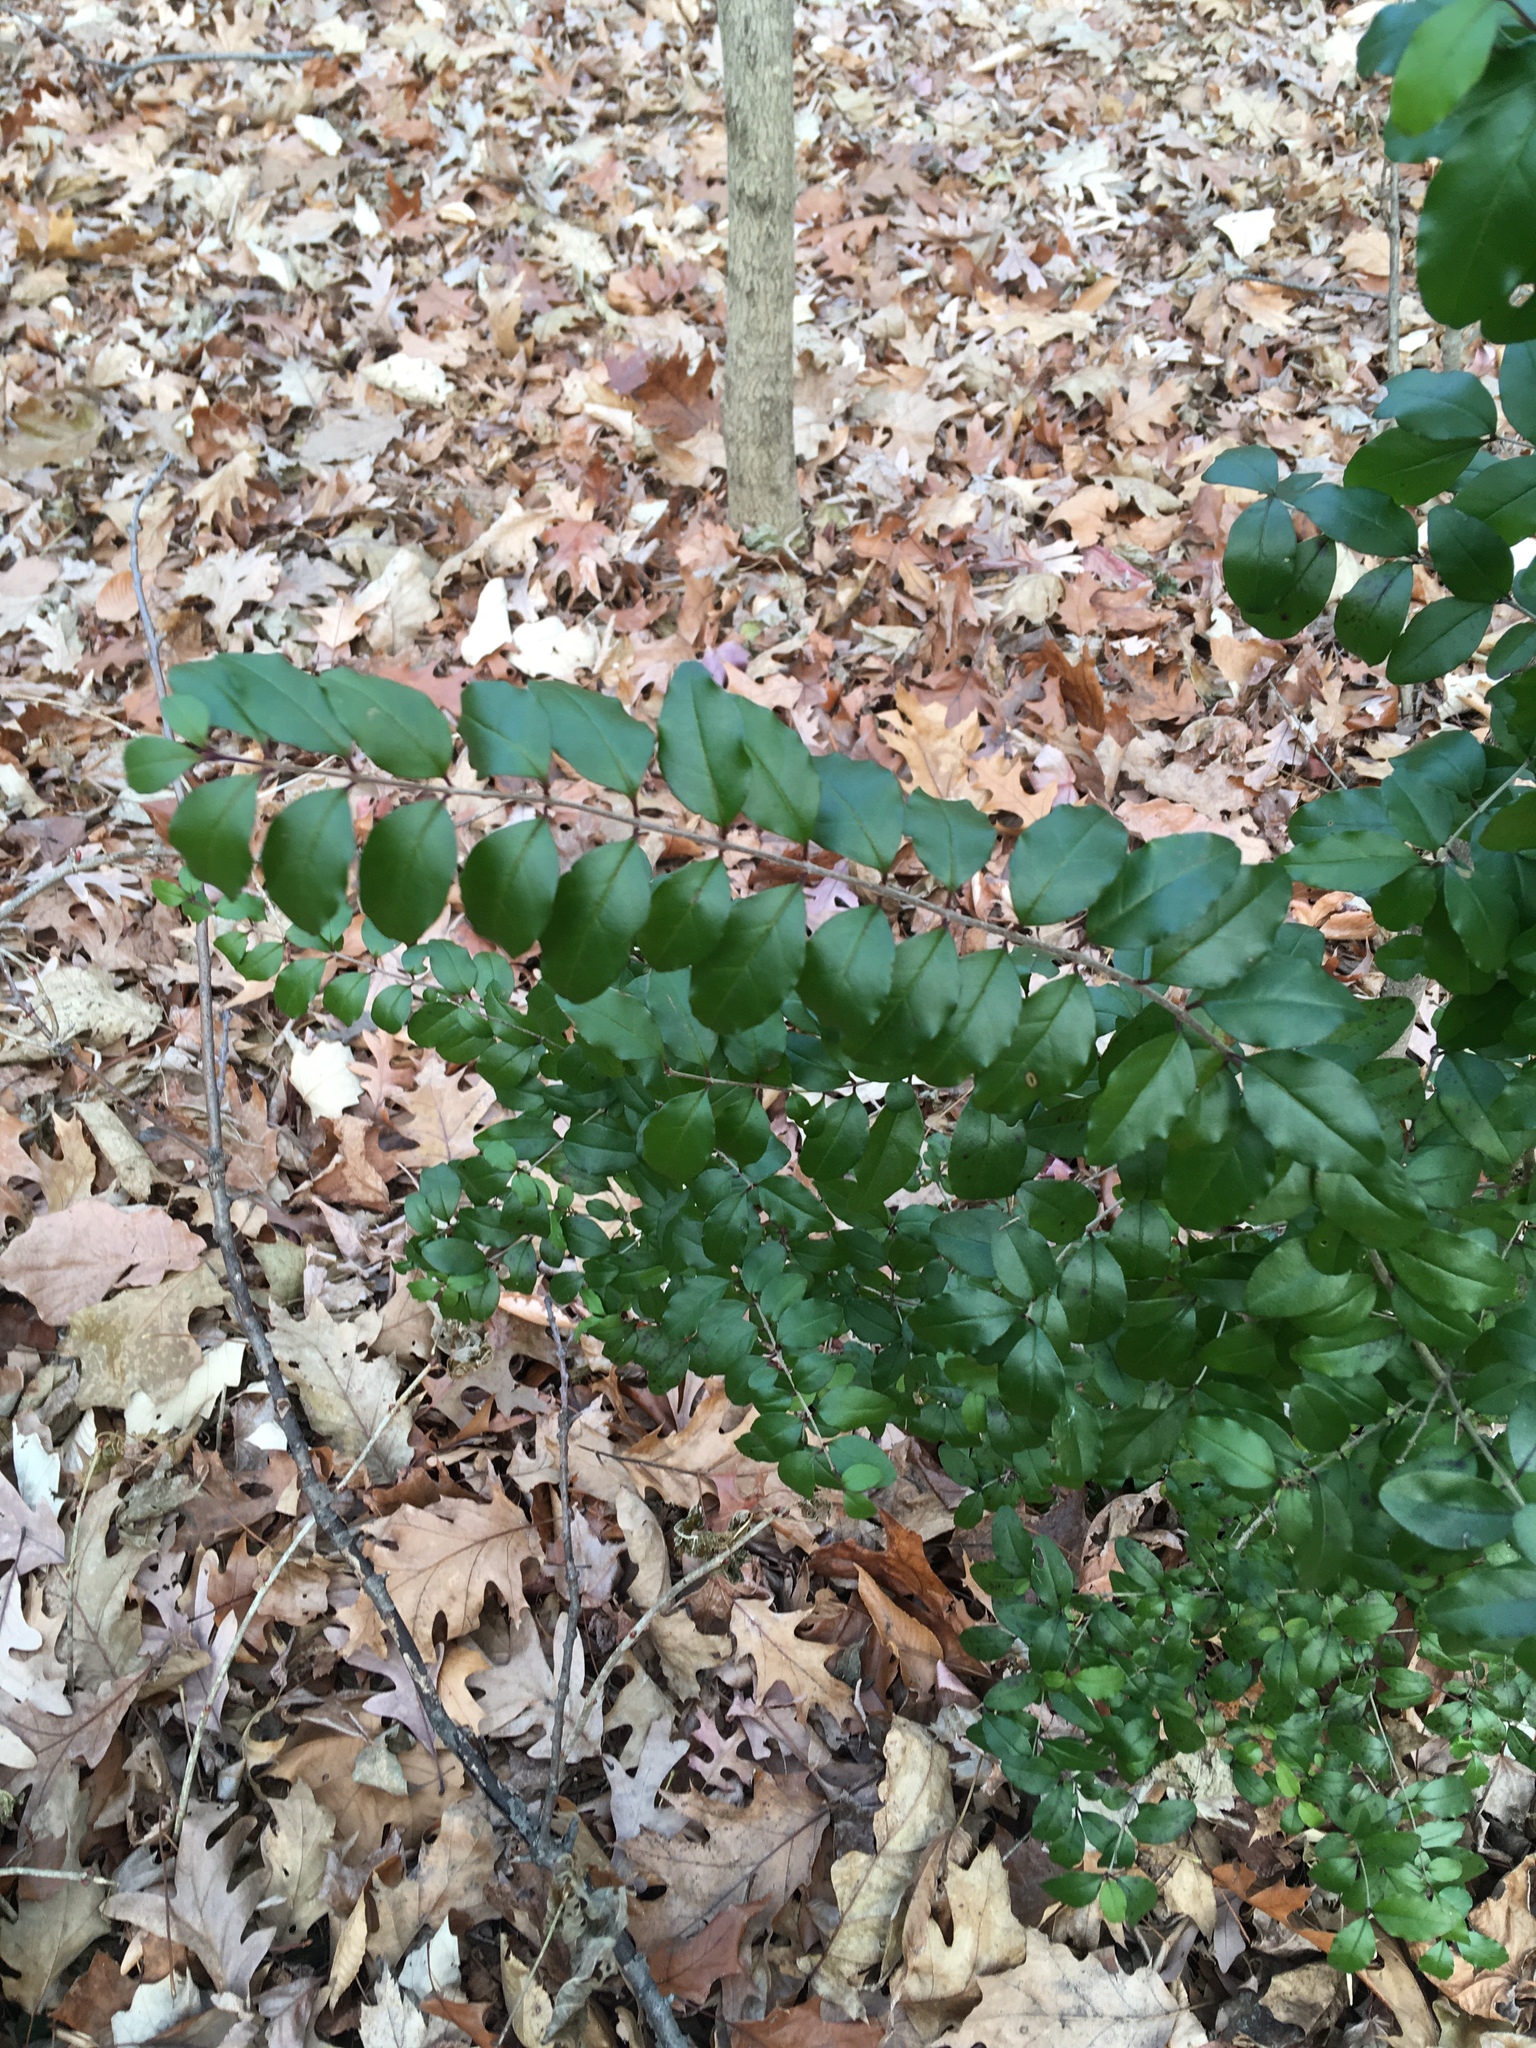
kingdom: Plantae
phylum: Tracheophyta
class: Magnoliopsida
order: Lamiales
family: Oleaceae
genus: Ligustrum
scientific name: Ligustrum sinense
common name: Chinese privet
